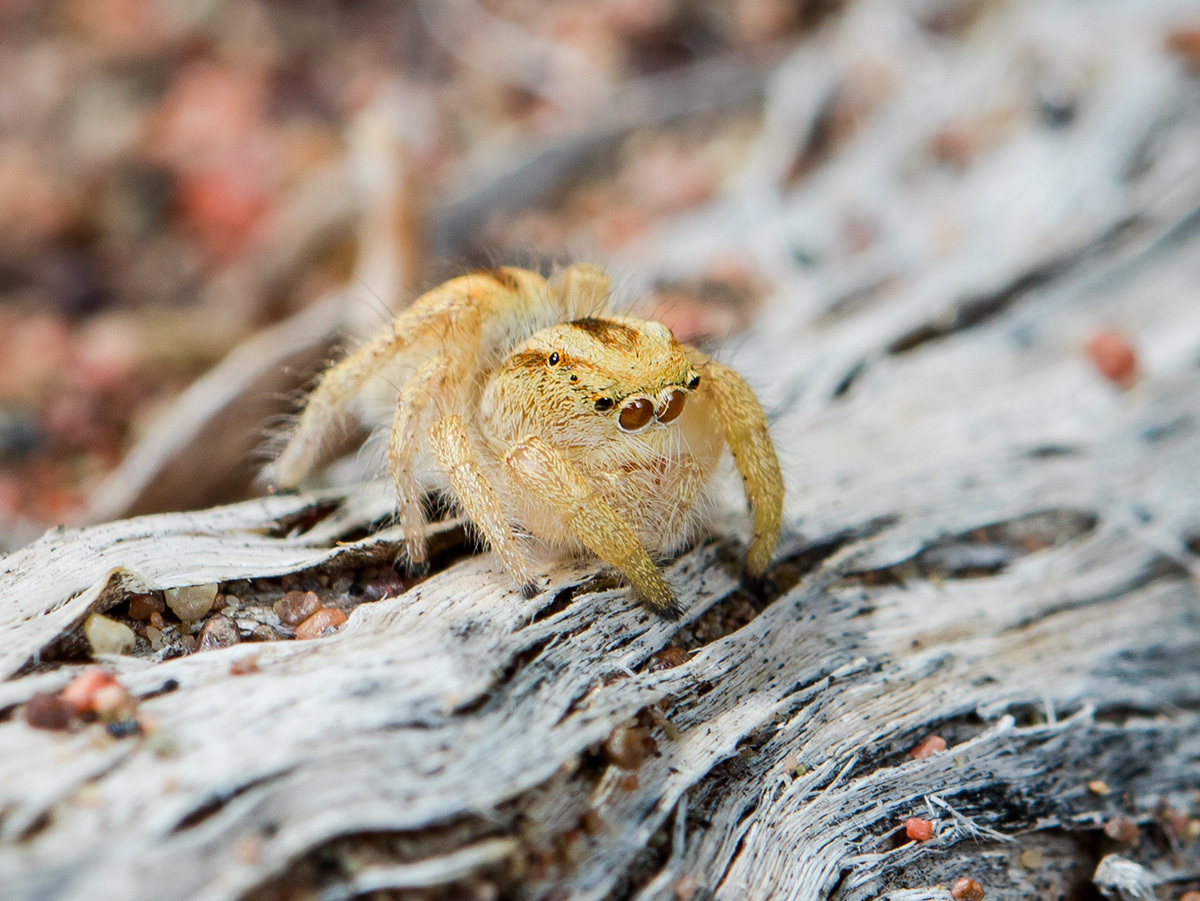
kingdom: Animalia
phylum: Arthropoda
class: Arachnida
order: Araneae
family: Salticidae
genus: Pseudomogrus
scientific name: Pseudomogrus zhilgaensis
